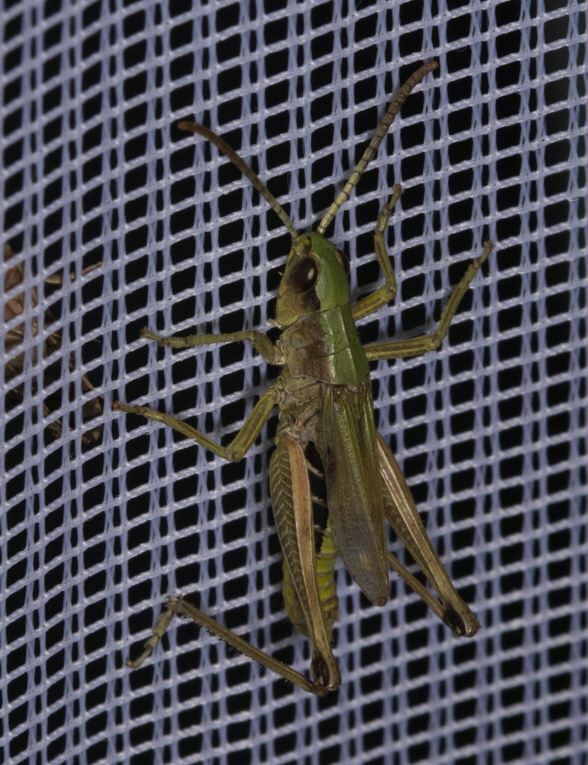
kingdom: Animalia
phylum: Arthropoda
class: Insecta
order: Orthoptera
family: Acrididae
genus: Pseudochorthippus
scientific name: Pseudochorthippus parallelus
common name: Meadow grasshopper
